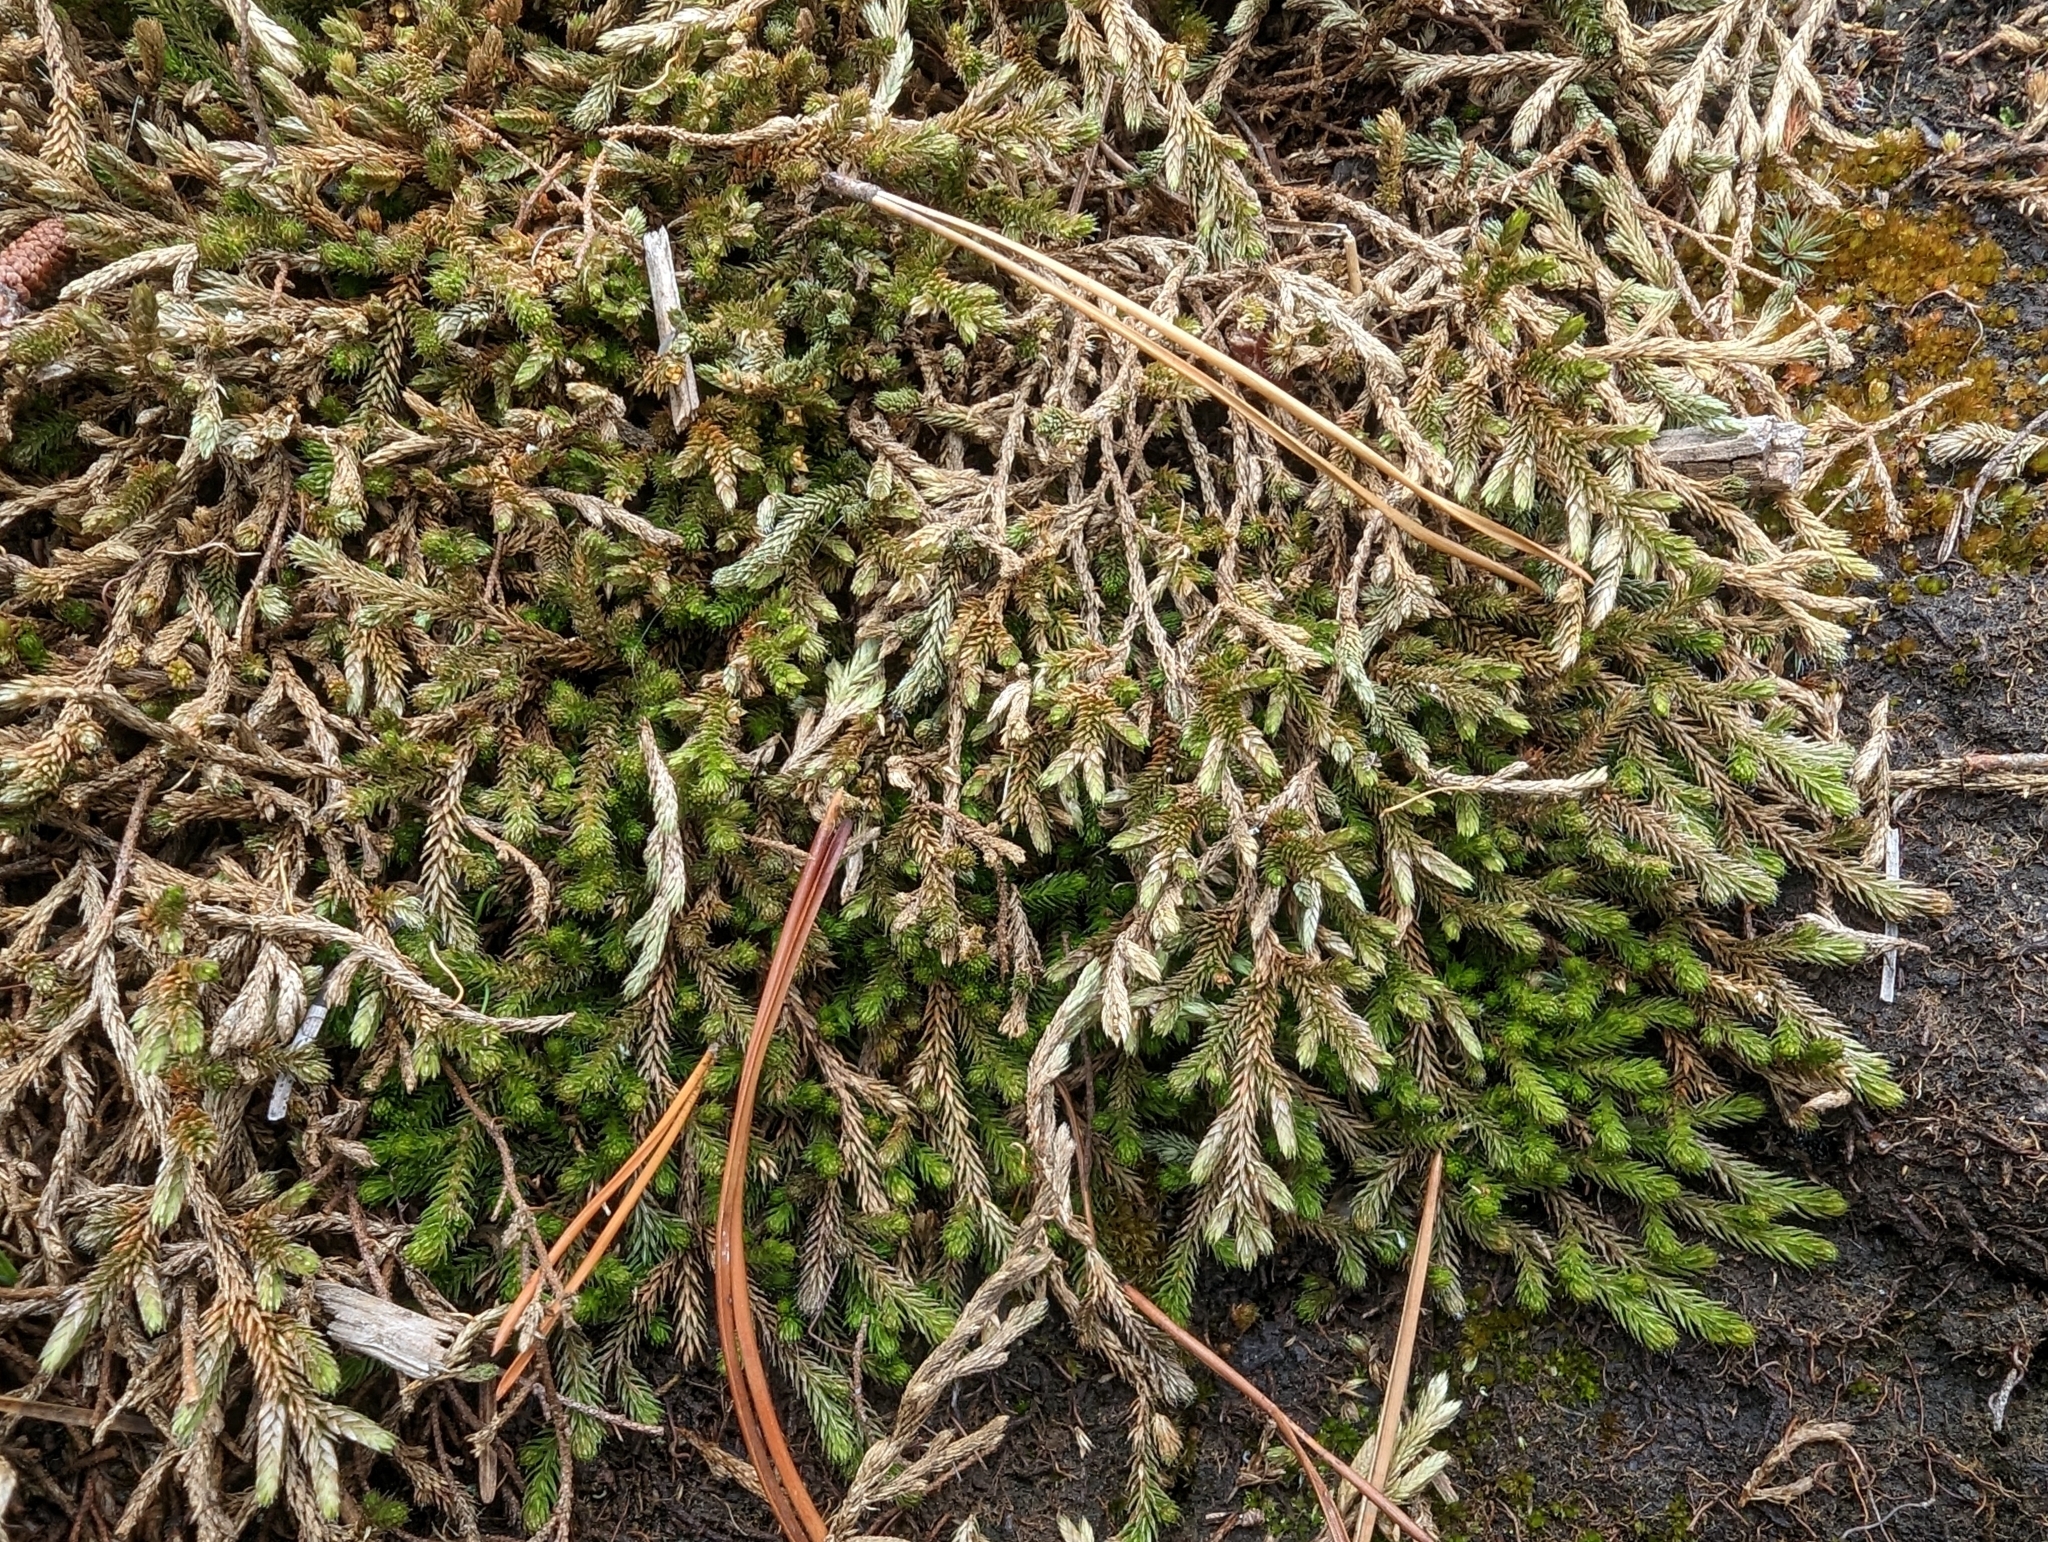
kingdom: Plantae
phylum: Tracheophyta
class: Lycopodiopsida
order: Selaginellales
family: Selaginellaceae
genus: Selaginella
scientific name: Selaginella wallacei
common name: Wallace's selaginella
